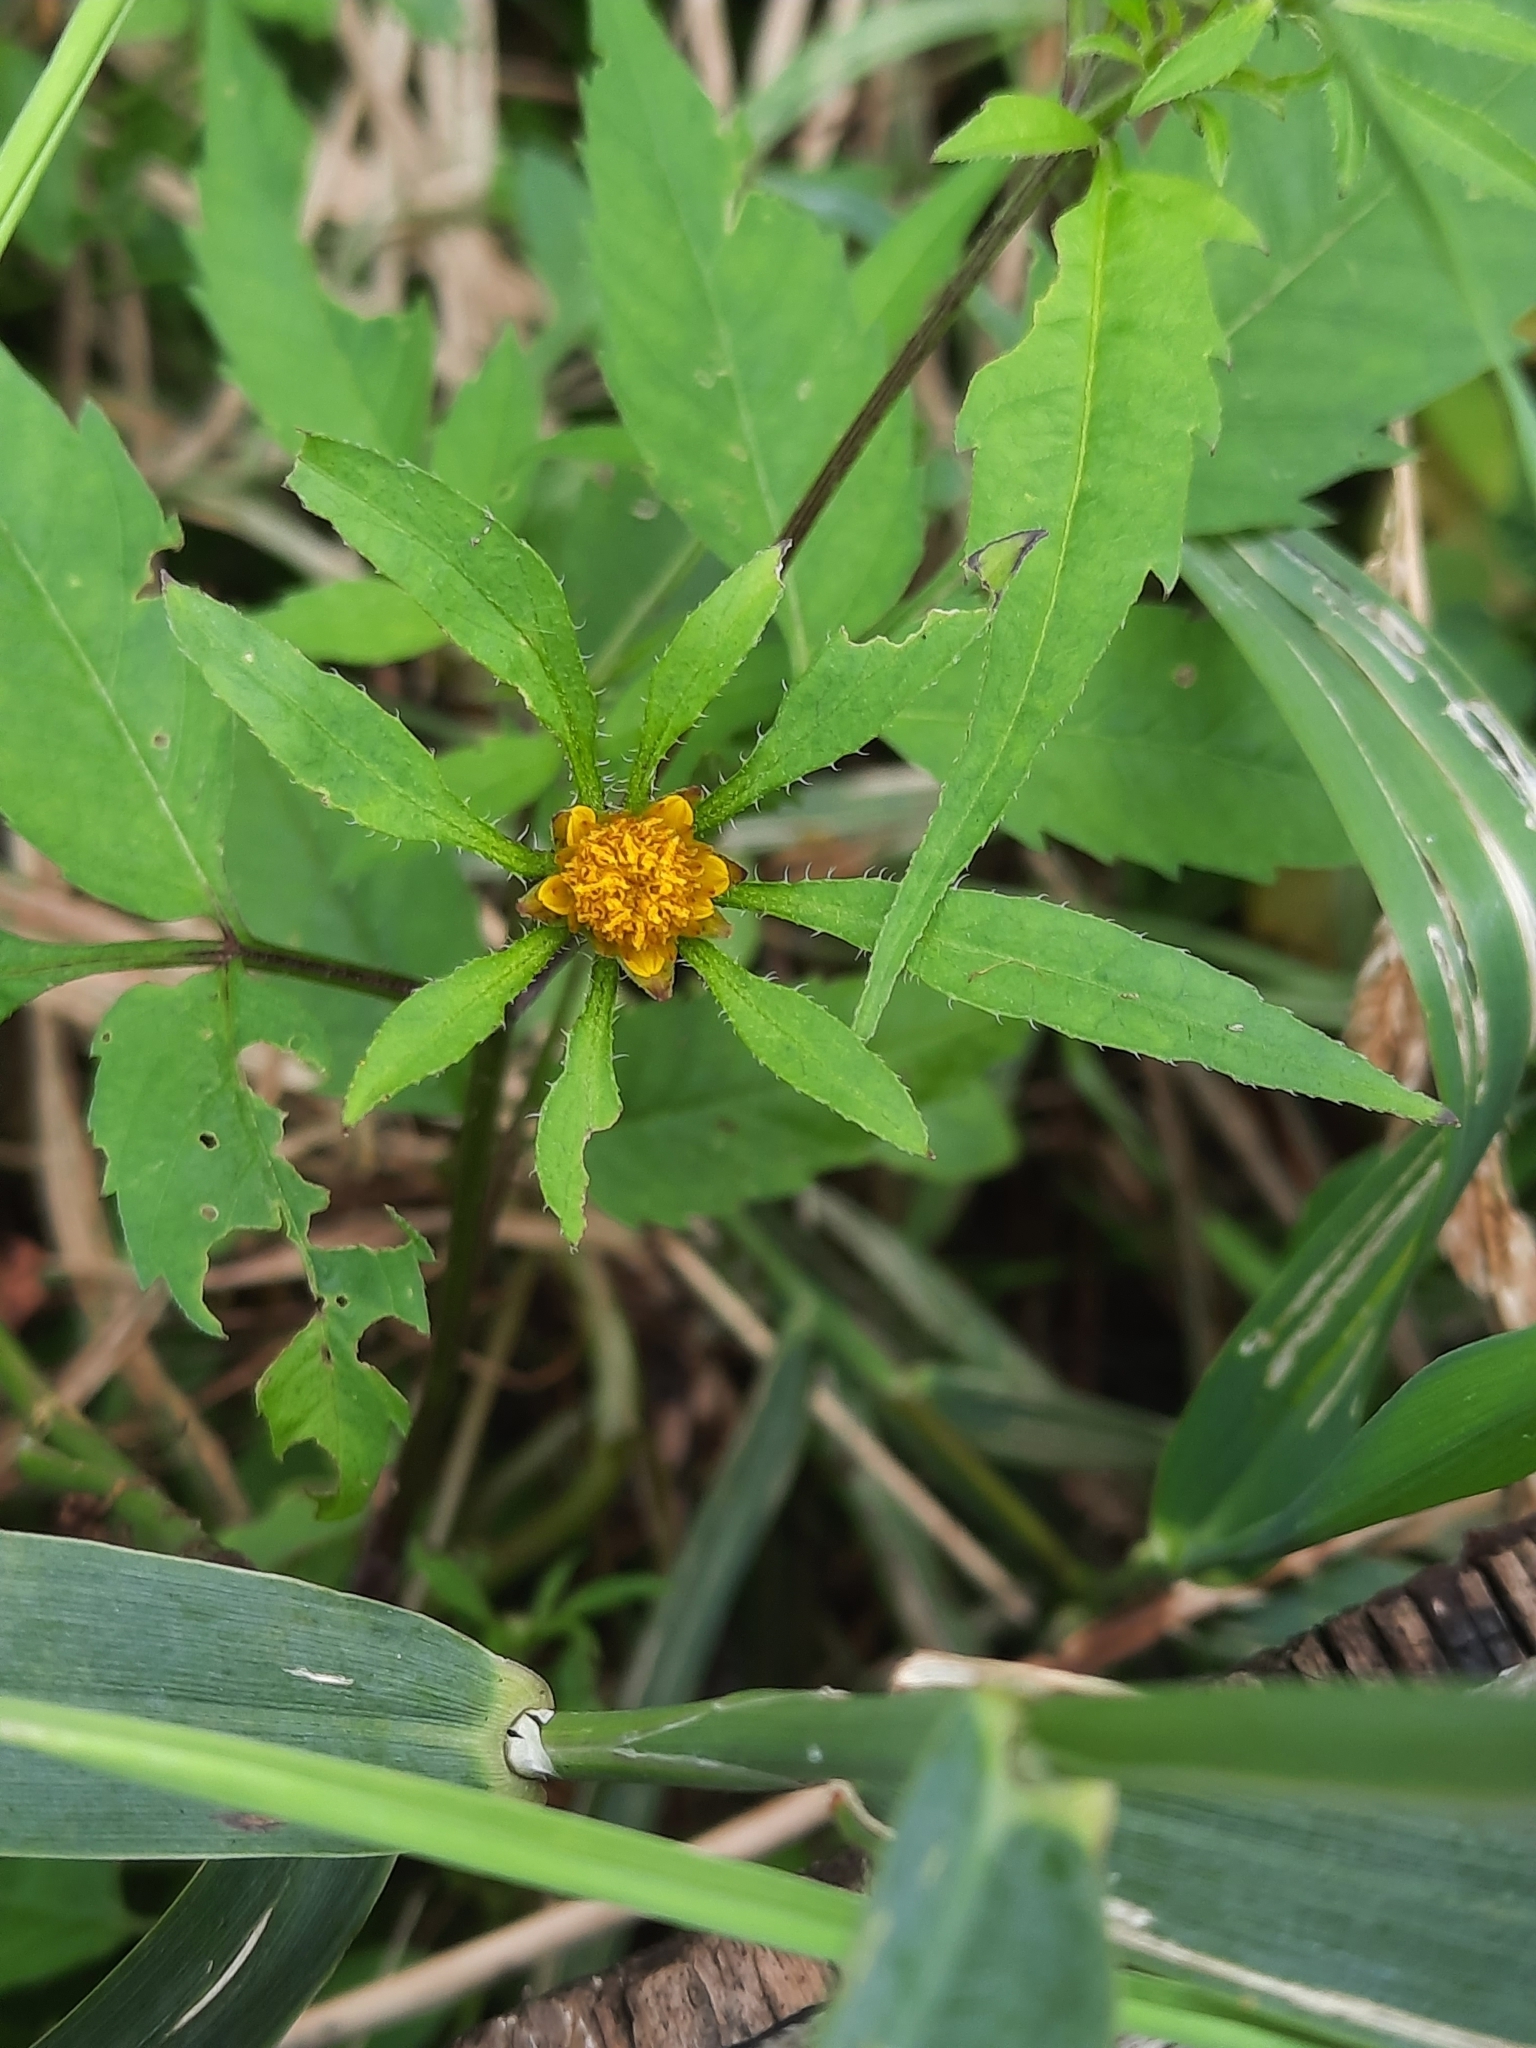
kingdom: Plantae
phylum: Tracheophyta
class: Magnoliopsida
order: Asterales
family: Asteraceae
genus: Bidens
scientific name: Bidens frondosa
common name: Beggarticks
